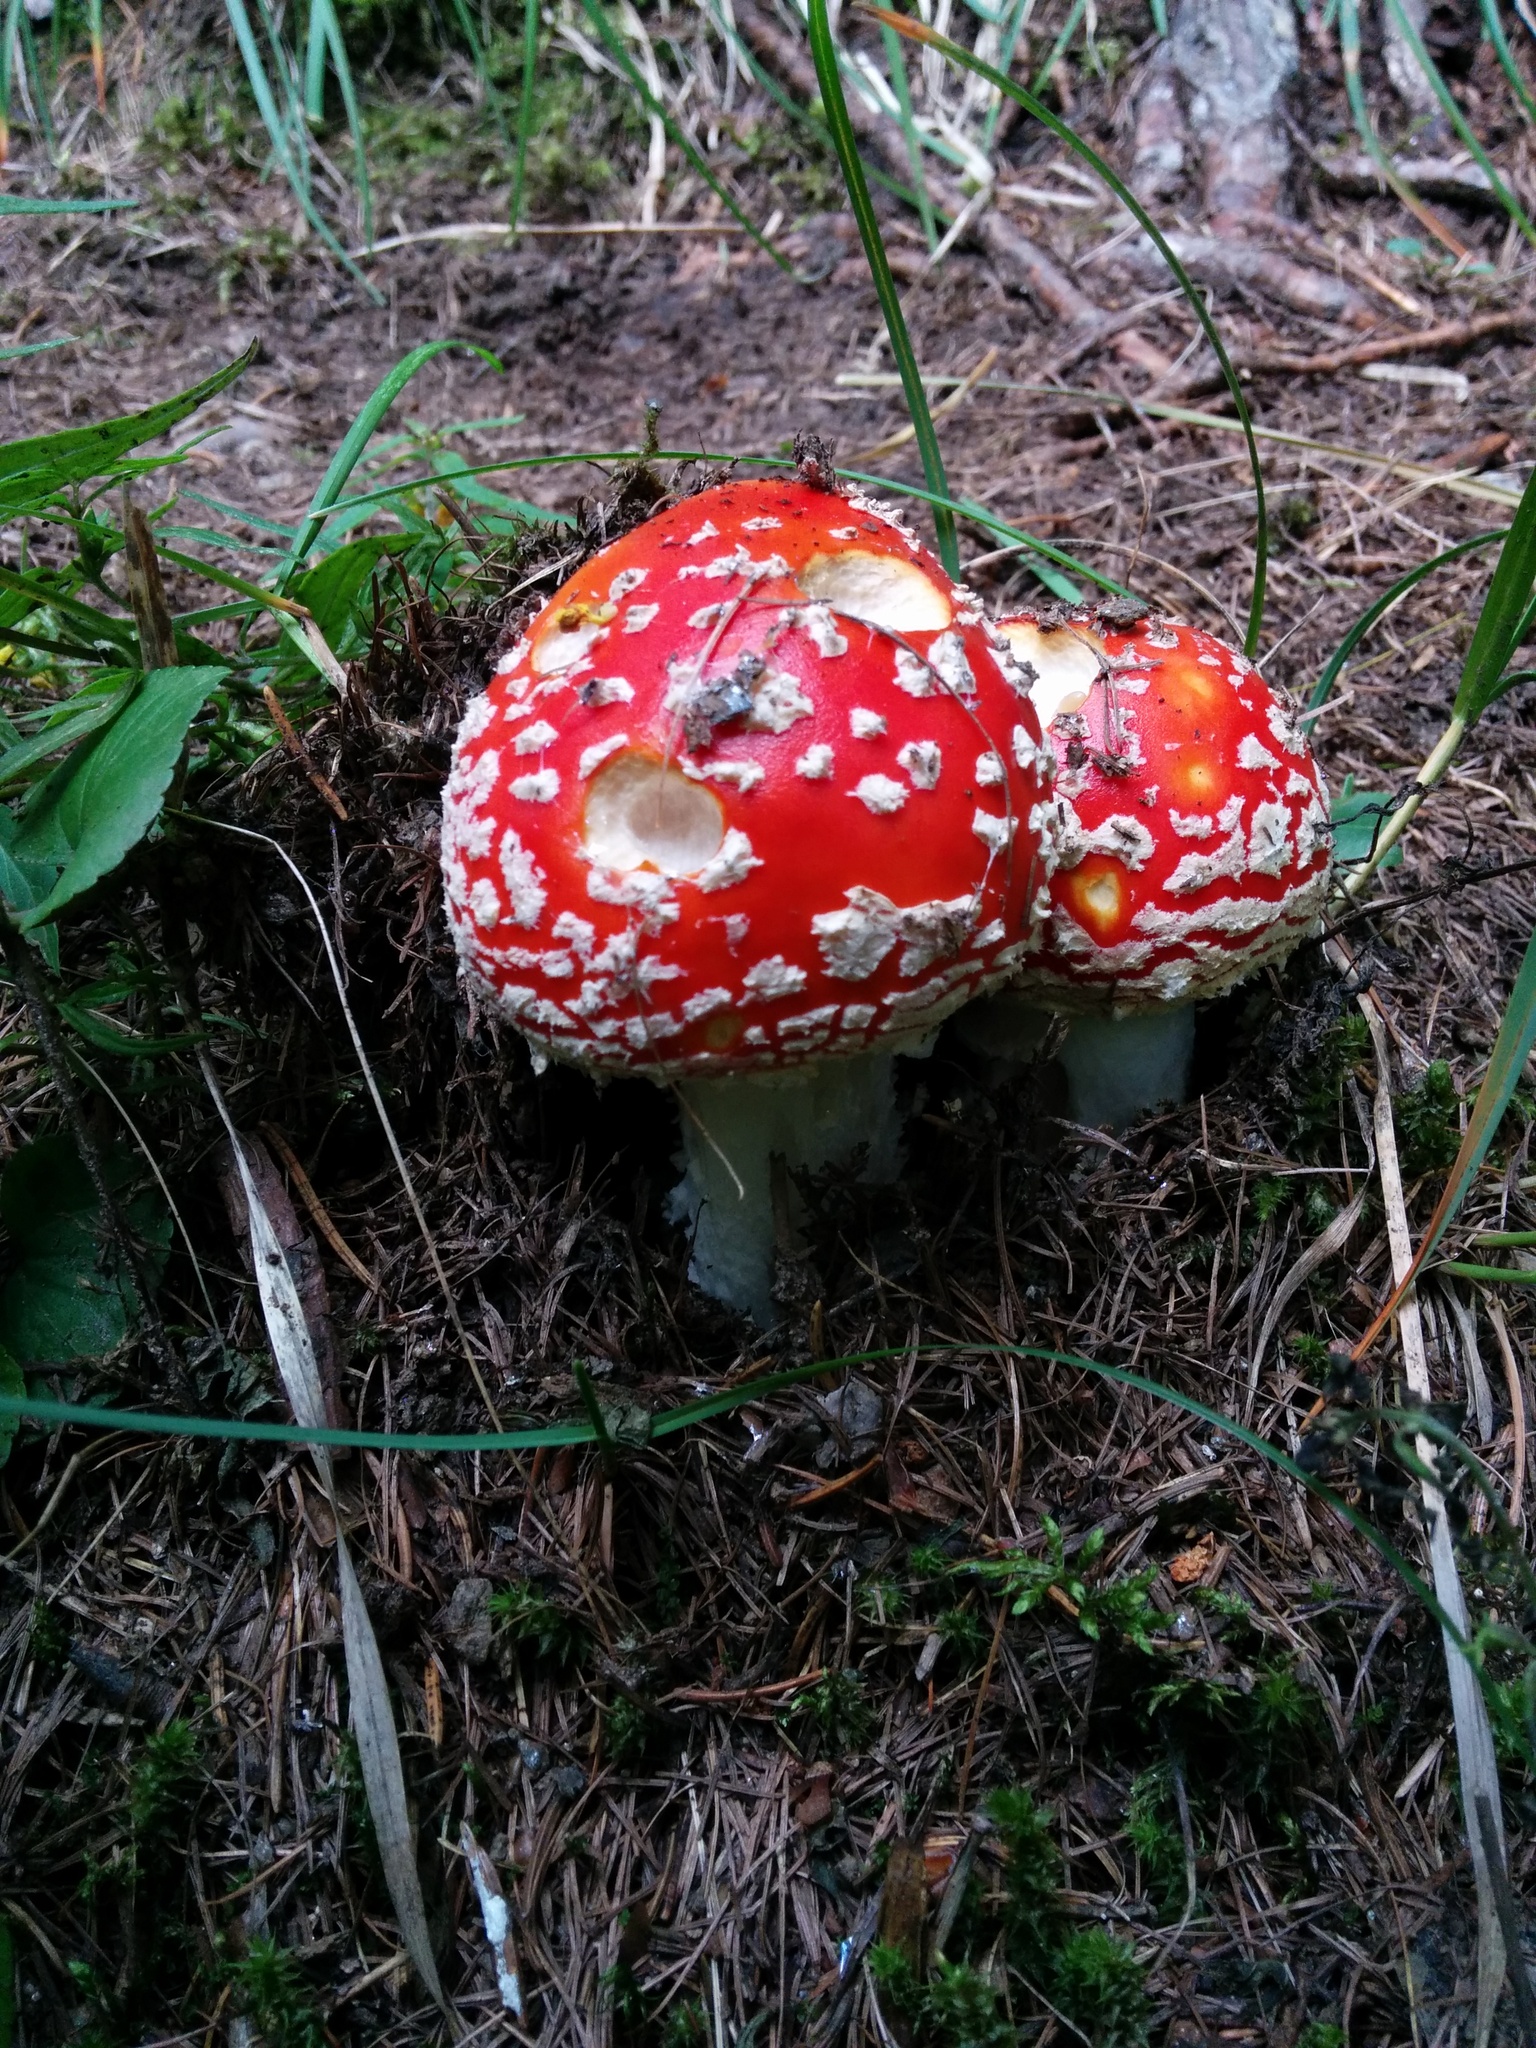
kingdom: Fungi
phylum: Basidiomycota
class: Agaricomycetes
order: Agaricales
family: Amanitaceae
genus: Amanita
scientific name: Amanita muscaria
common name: Fly agaric
